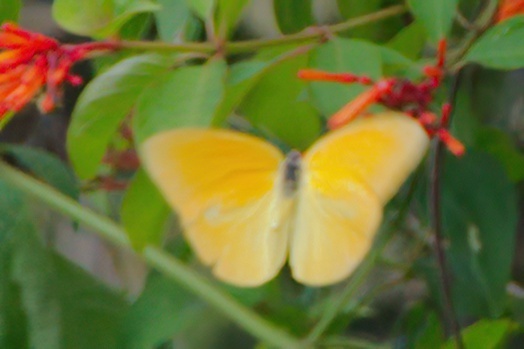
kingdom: Animalia
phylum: Arthropoda
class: Insecta
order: Lepidoptera
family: Pieridae
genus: Phoebis
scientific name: Phoebis agarithe
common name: Large orange sulphur
